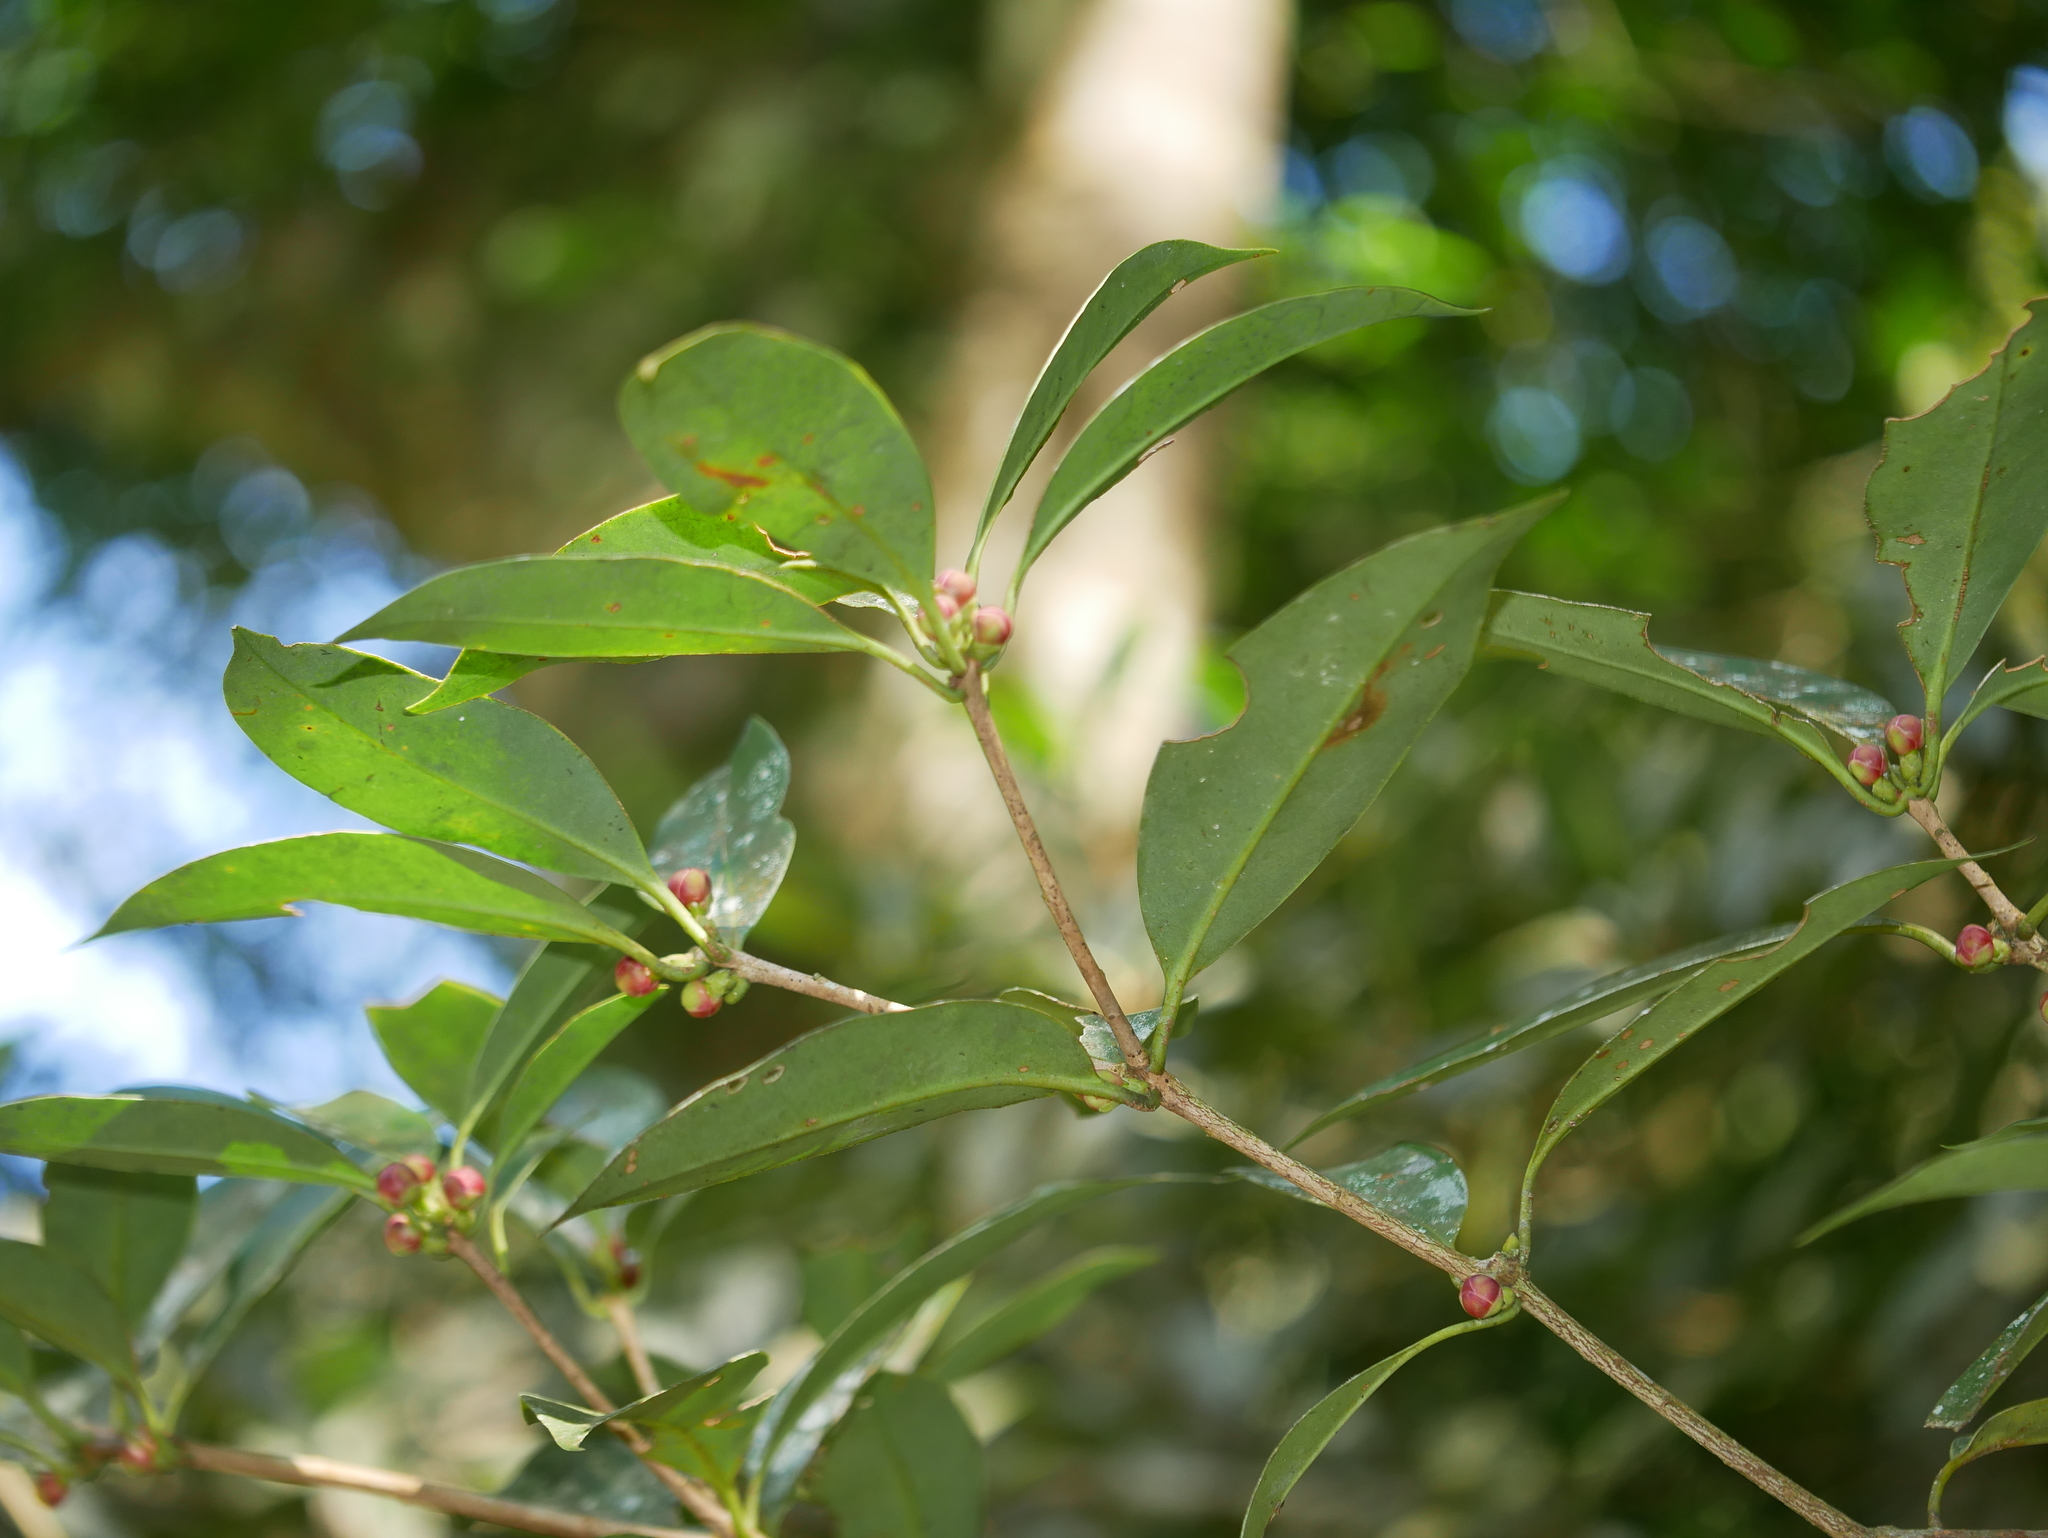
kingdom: Plantae
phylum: Tracheophyta
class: Magnoliopsida
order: Austrobaileyales
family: Schisandraceae
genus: Illicium
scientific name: Illicium arborescens
